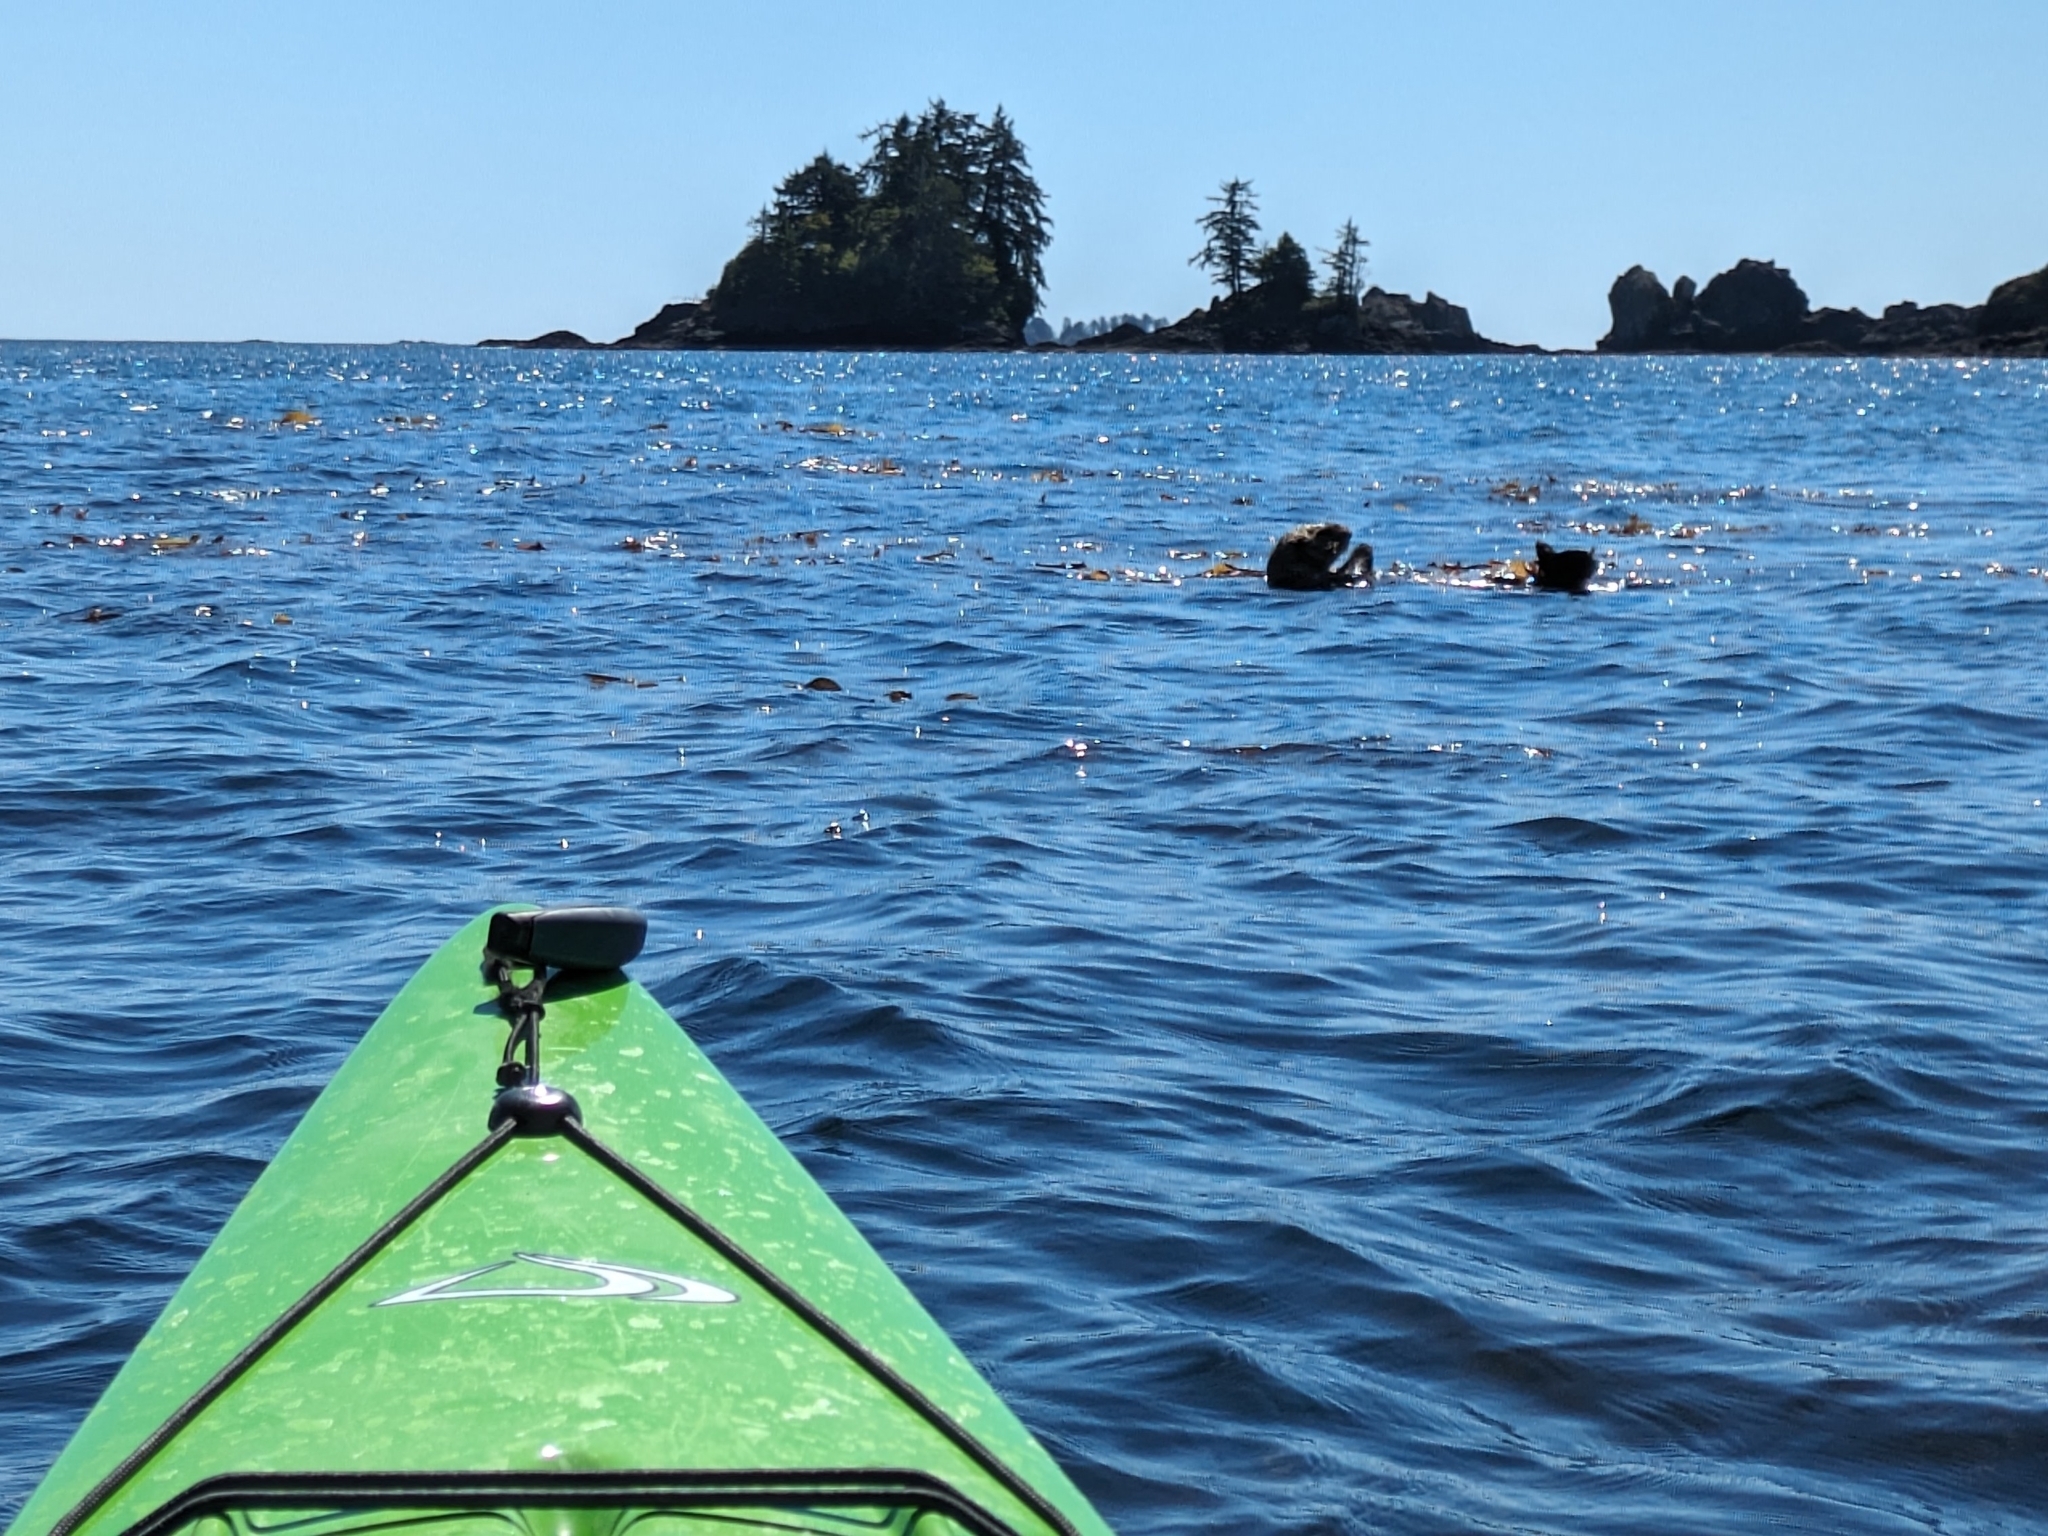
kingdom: Animalia
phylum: Chordata
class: Mammalia
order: Carnivora
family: Mustelidae
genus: Enhydra
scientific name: Enhydra lutris
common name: Sea otter
